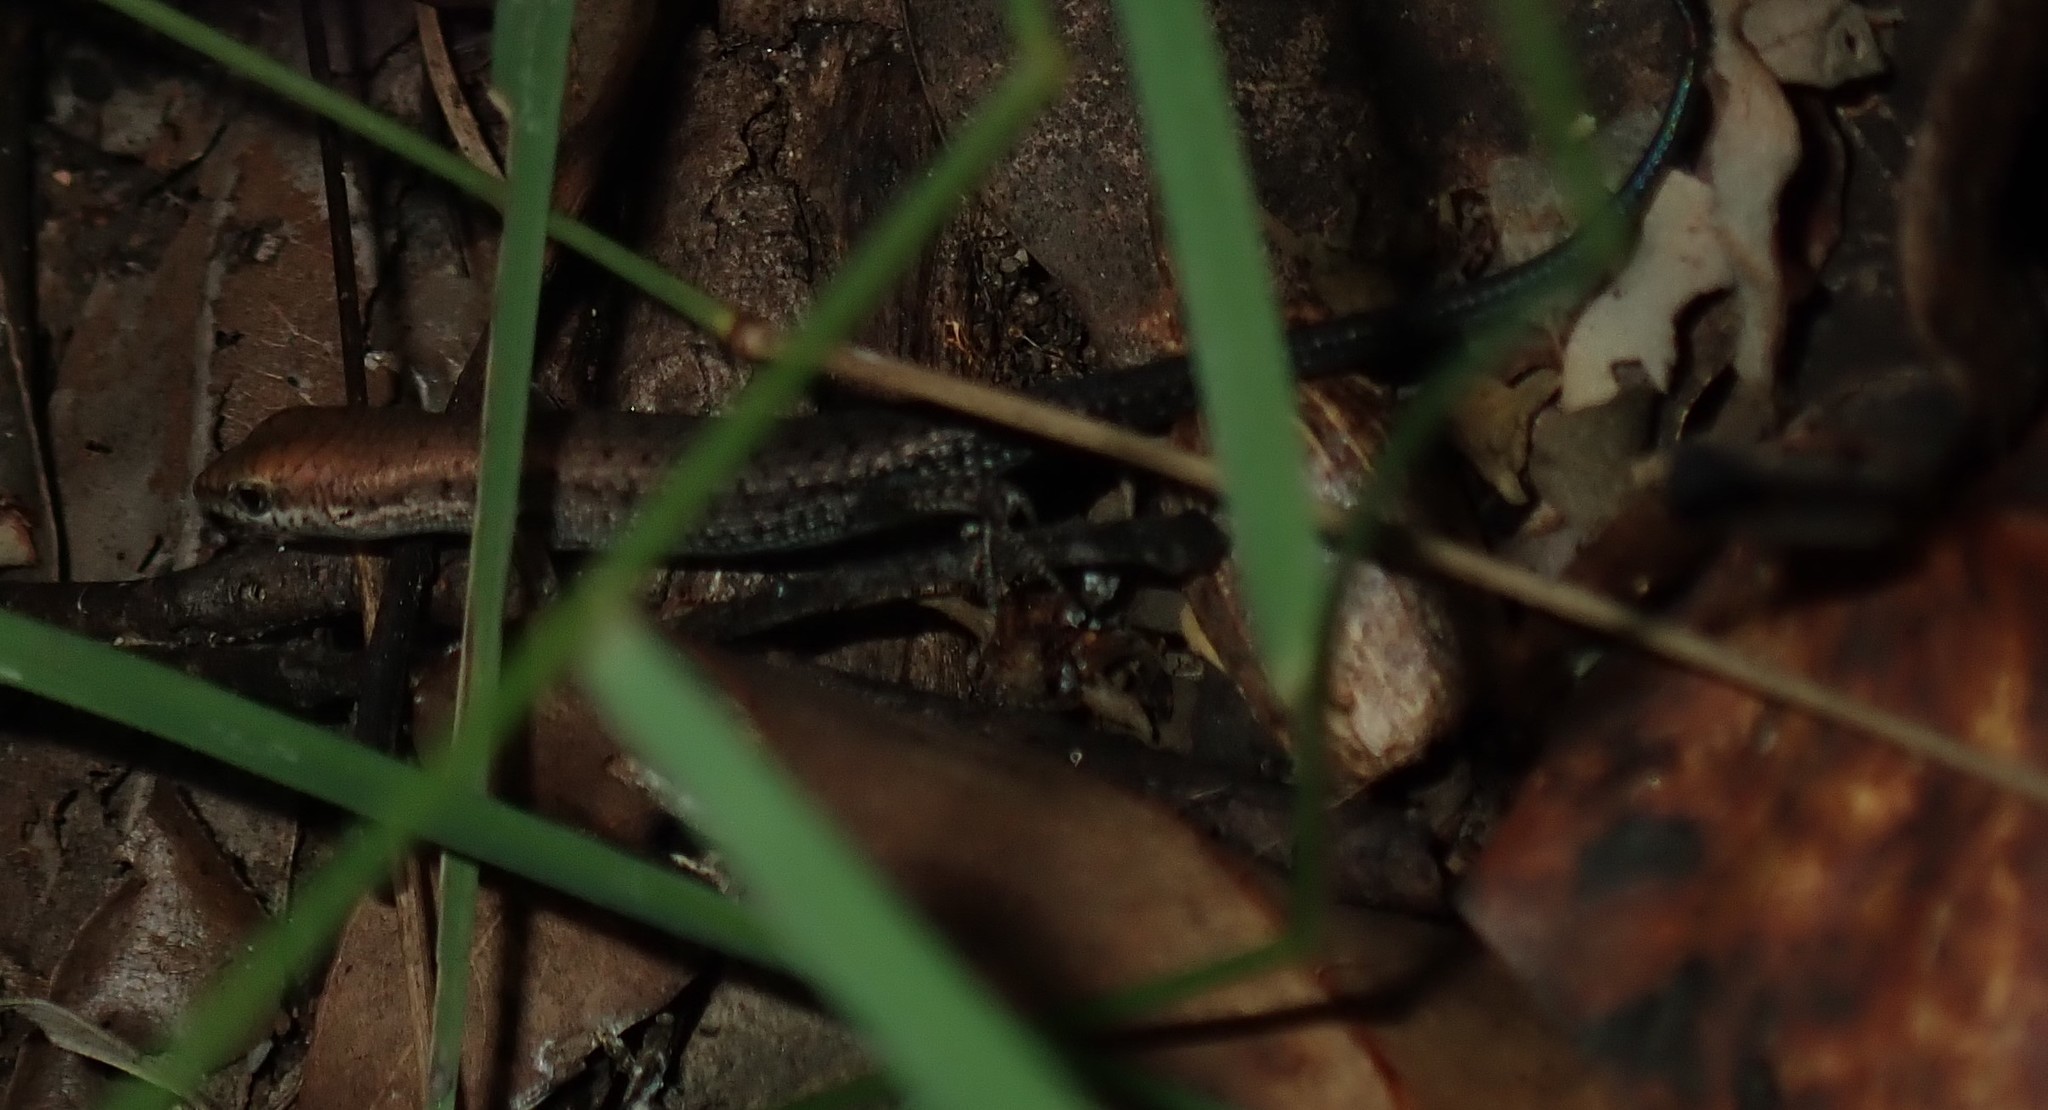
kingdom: Animalia
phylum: Chordata
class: Squamata
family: Scincidae
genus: Carlia
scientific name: Carlia
